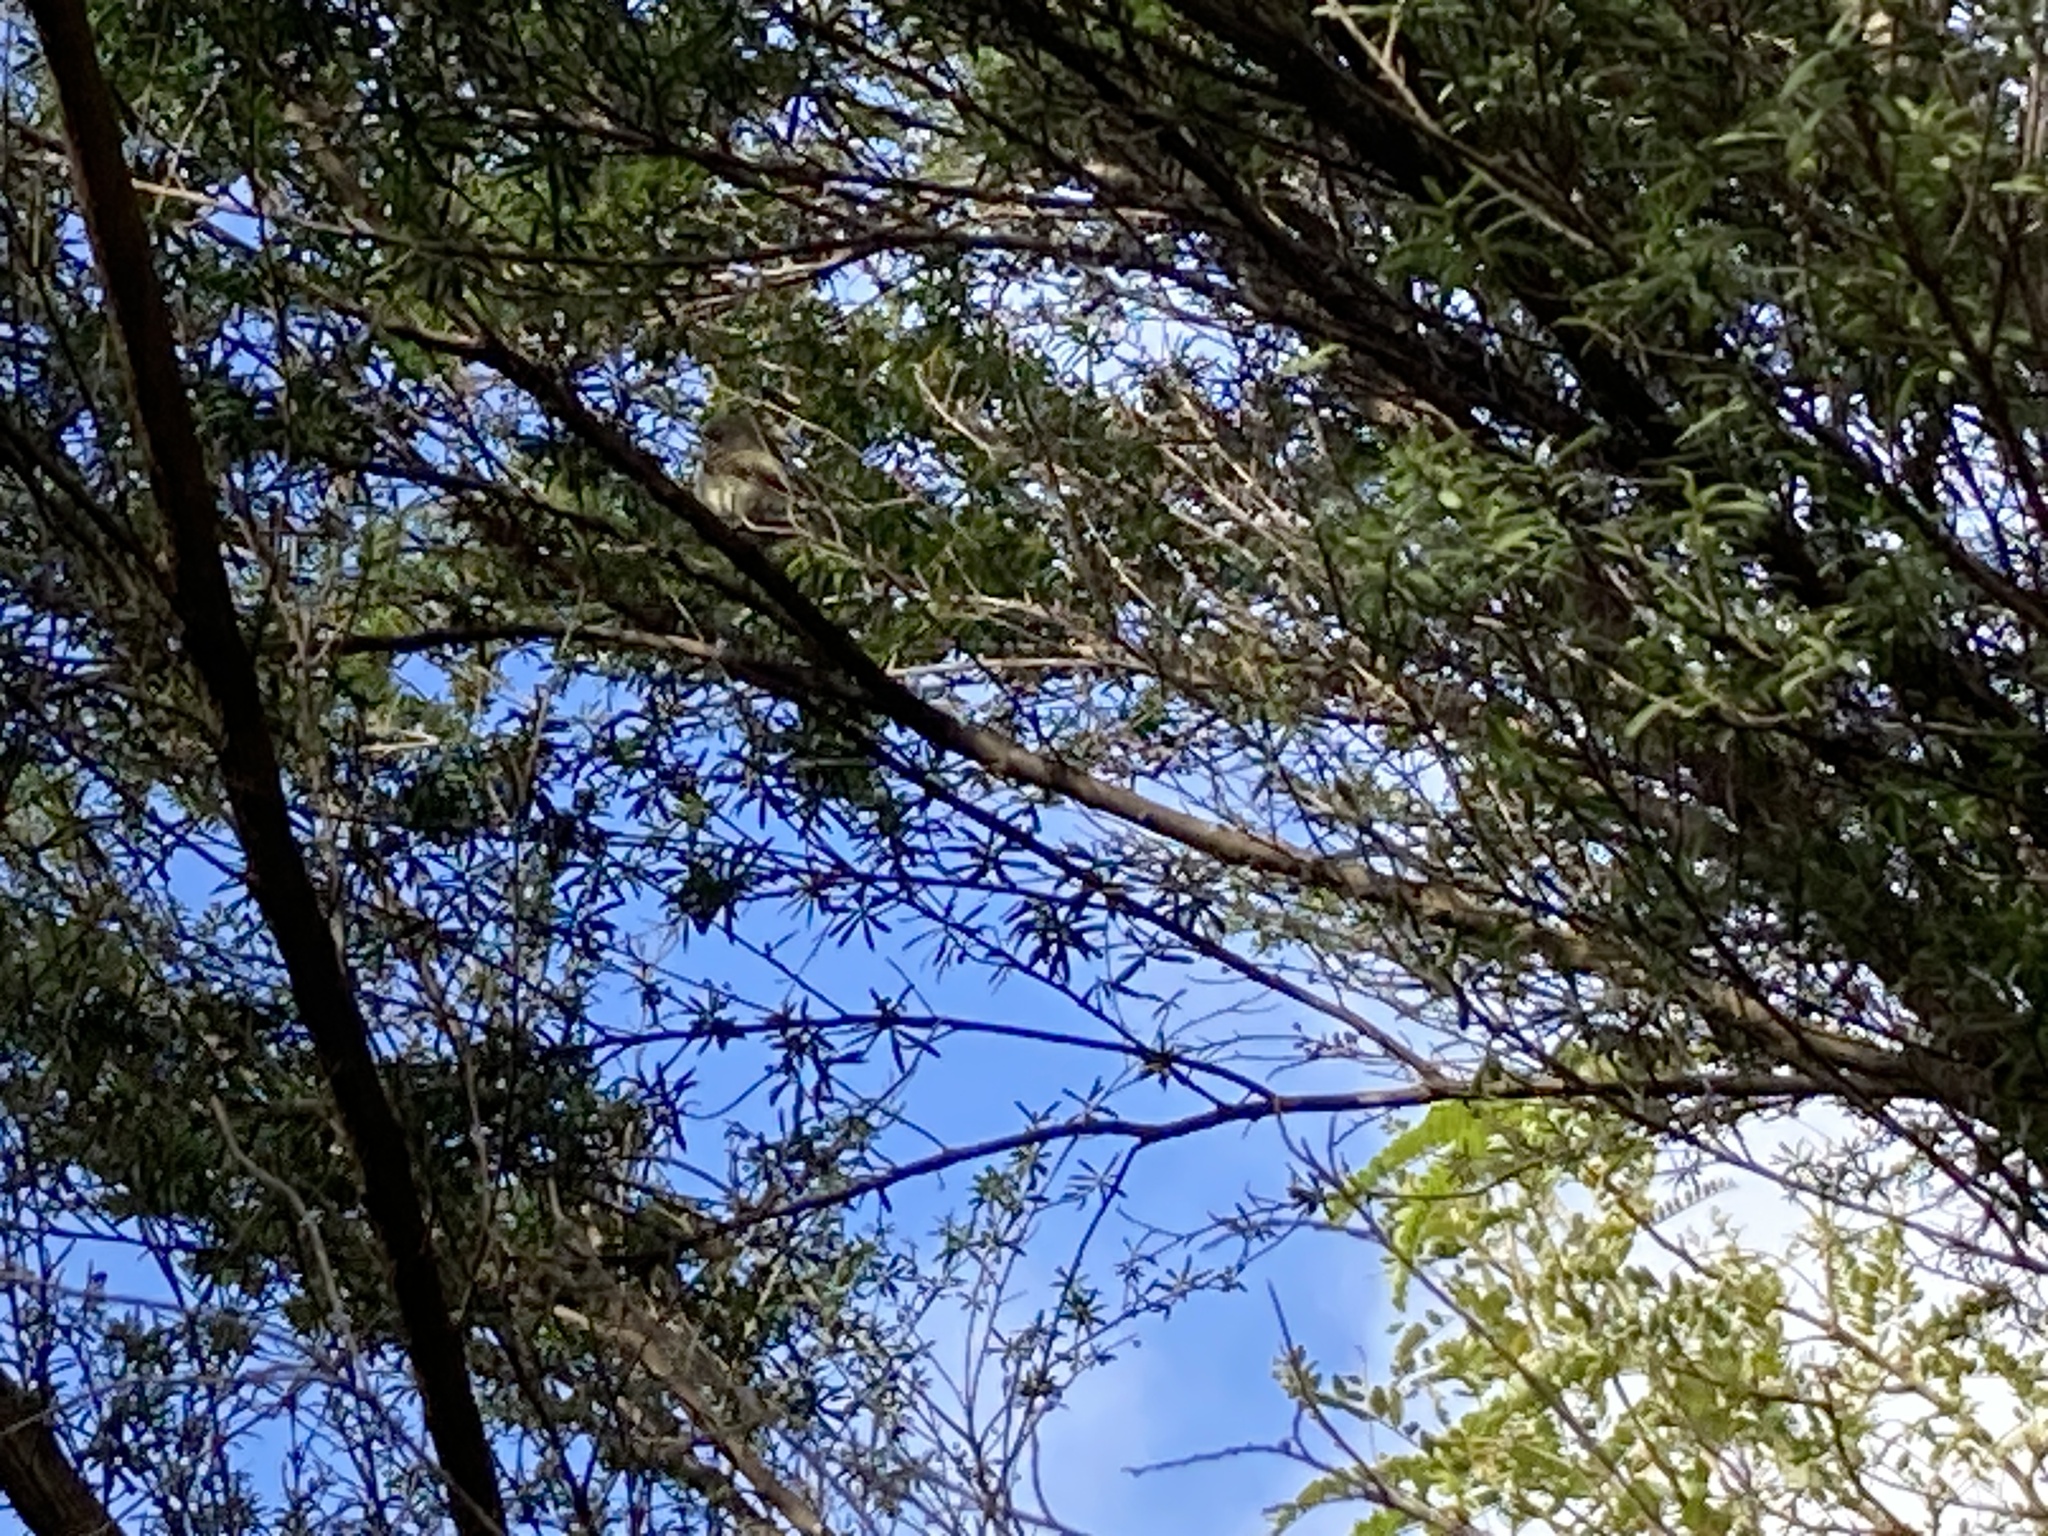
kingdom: Animalia
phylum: Chordata
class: Aves
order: Passeriformes
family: Acanthizidae
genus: Gerygone
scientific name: Gerygone igata
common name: Grey gerygone
